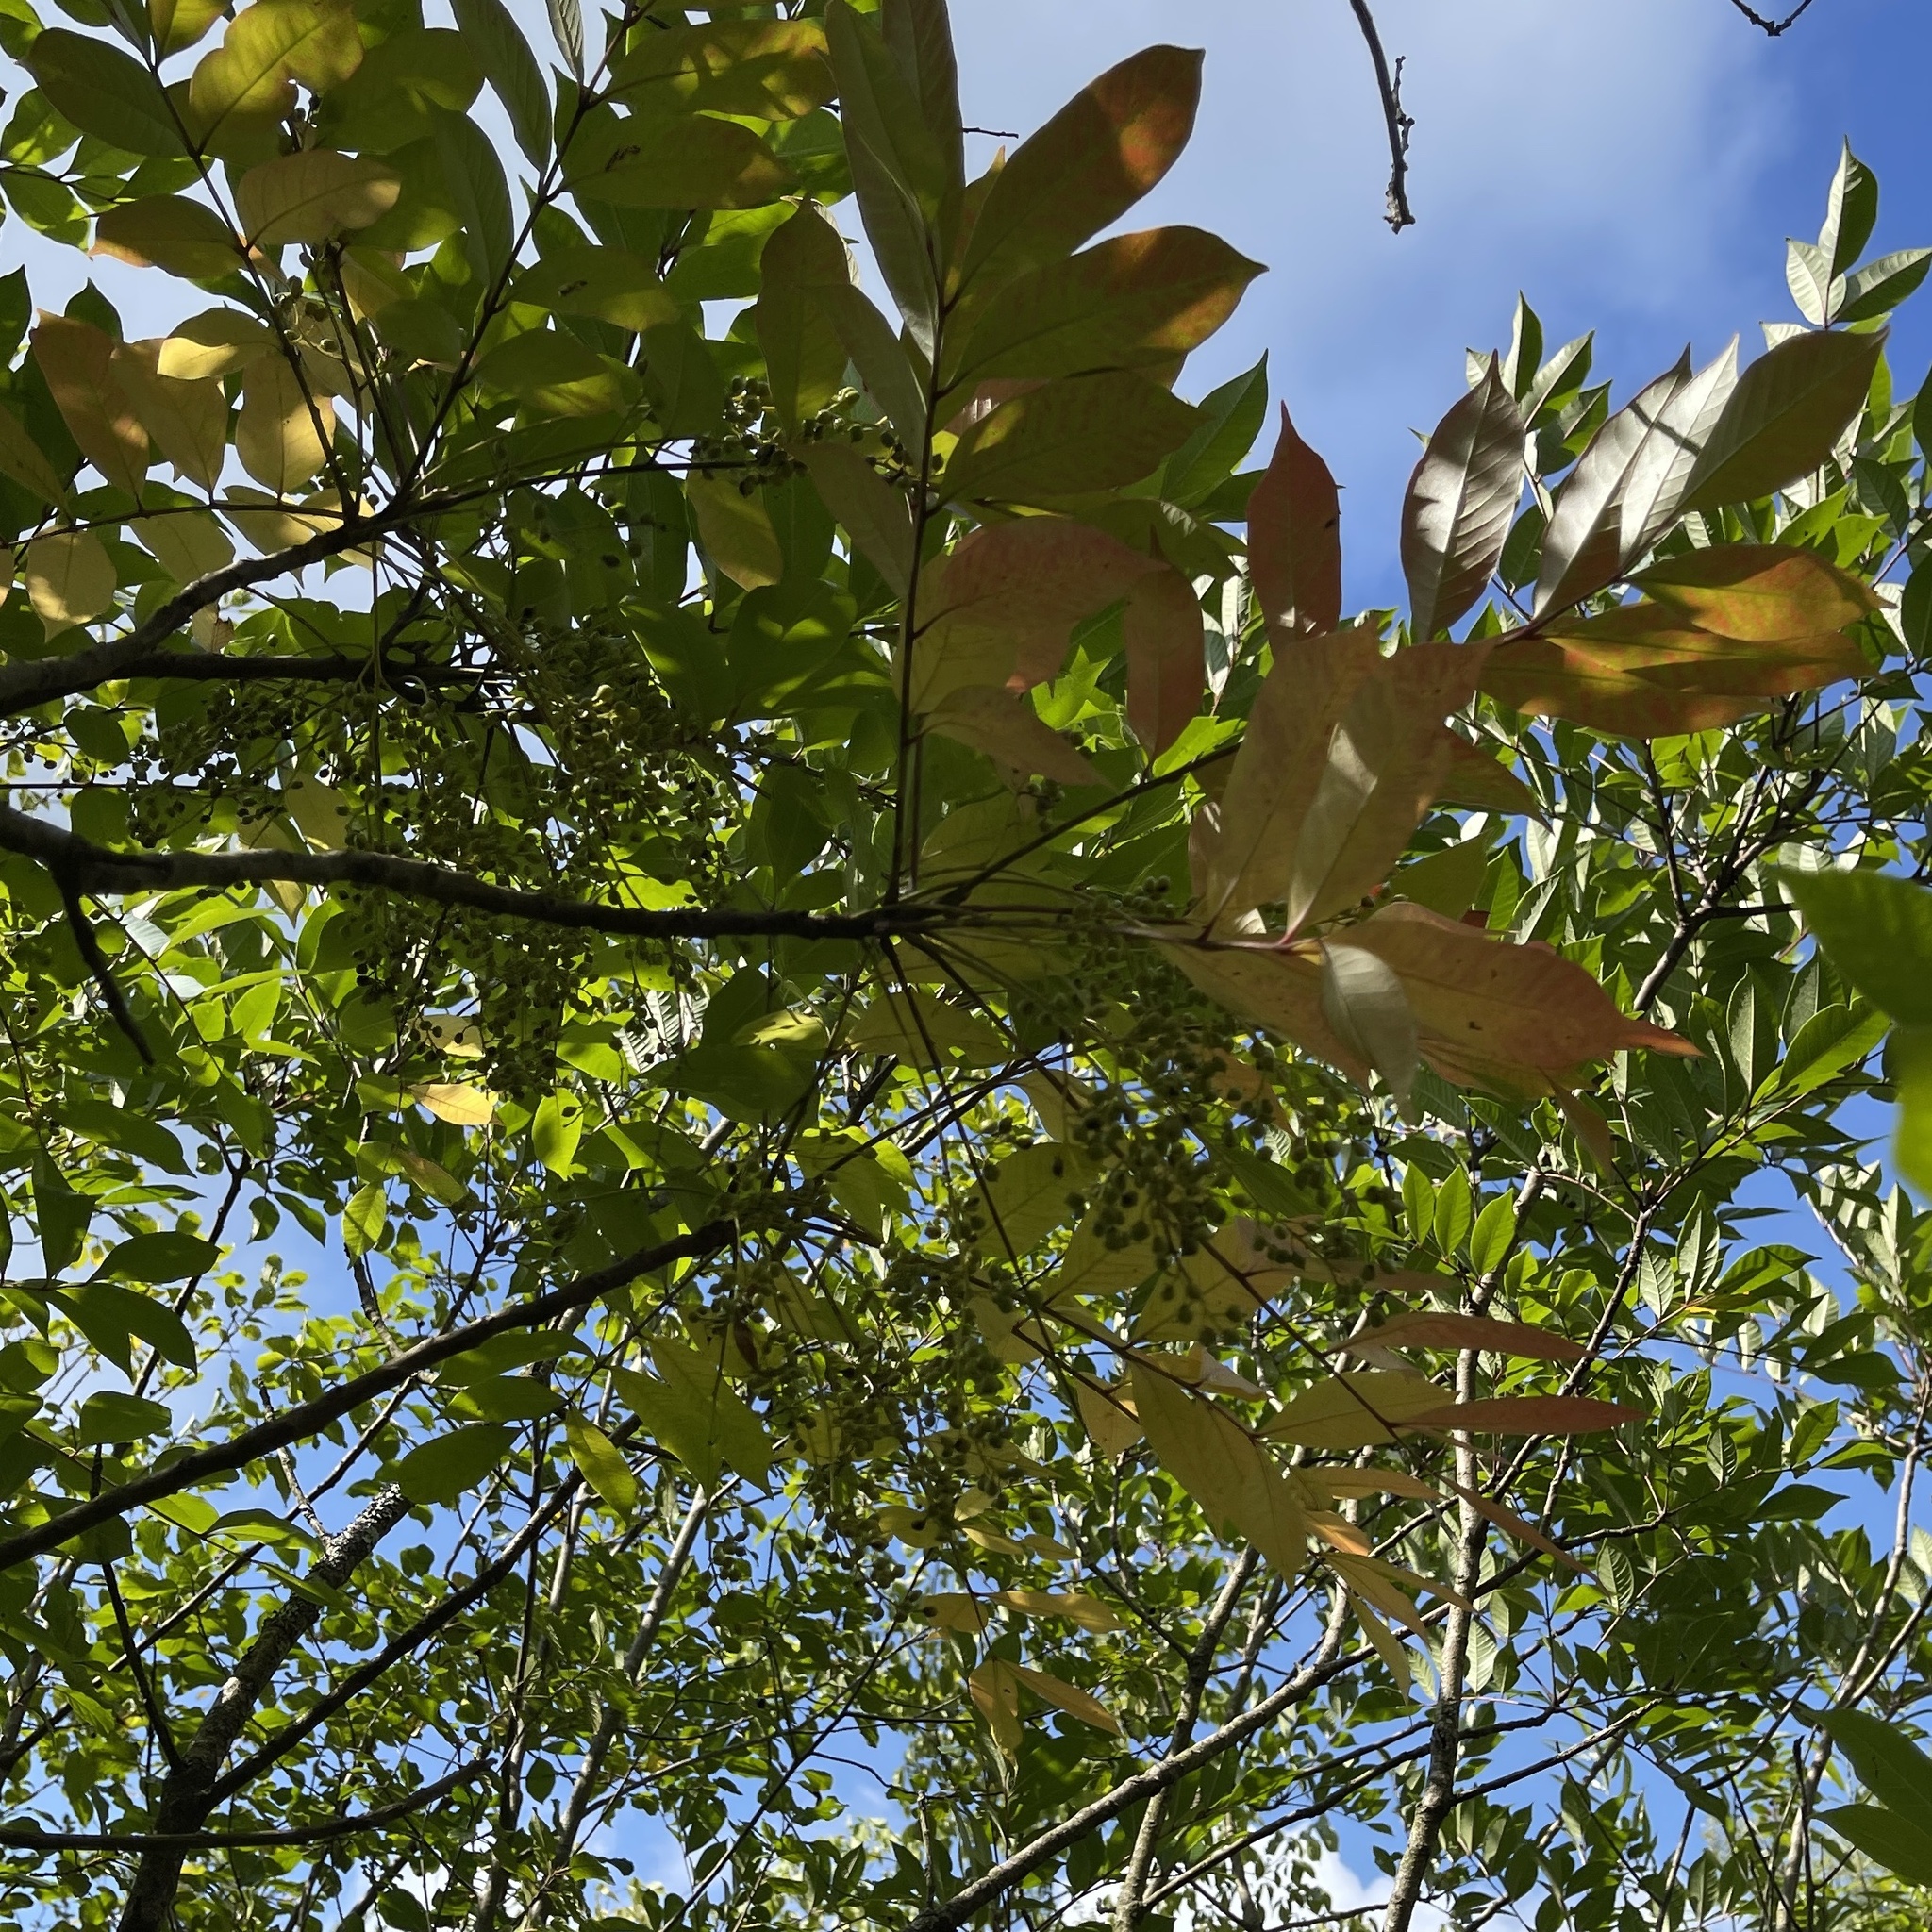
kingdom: Plantae
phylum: Tracheophyta
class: Magnoliopsida
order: Sapindales
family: Anacardiaceae
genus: Toxicodendron
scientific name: Toxicodendron vernix
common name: Poison sumac
